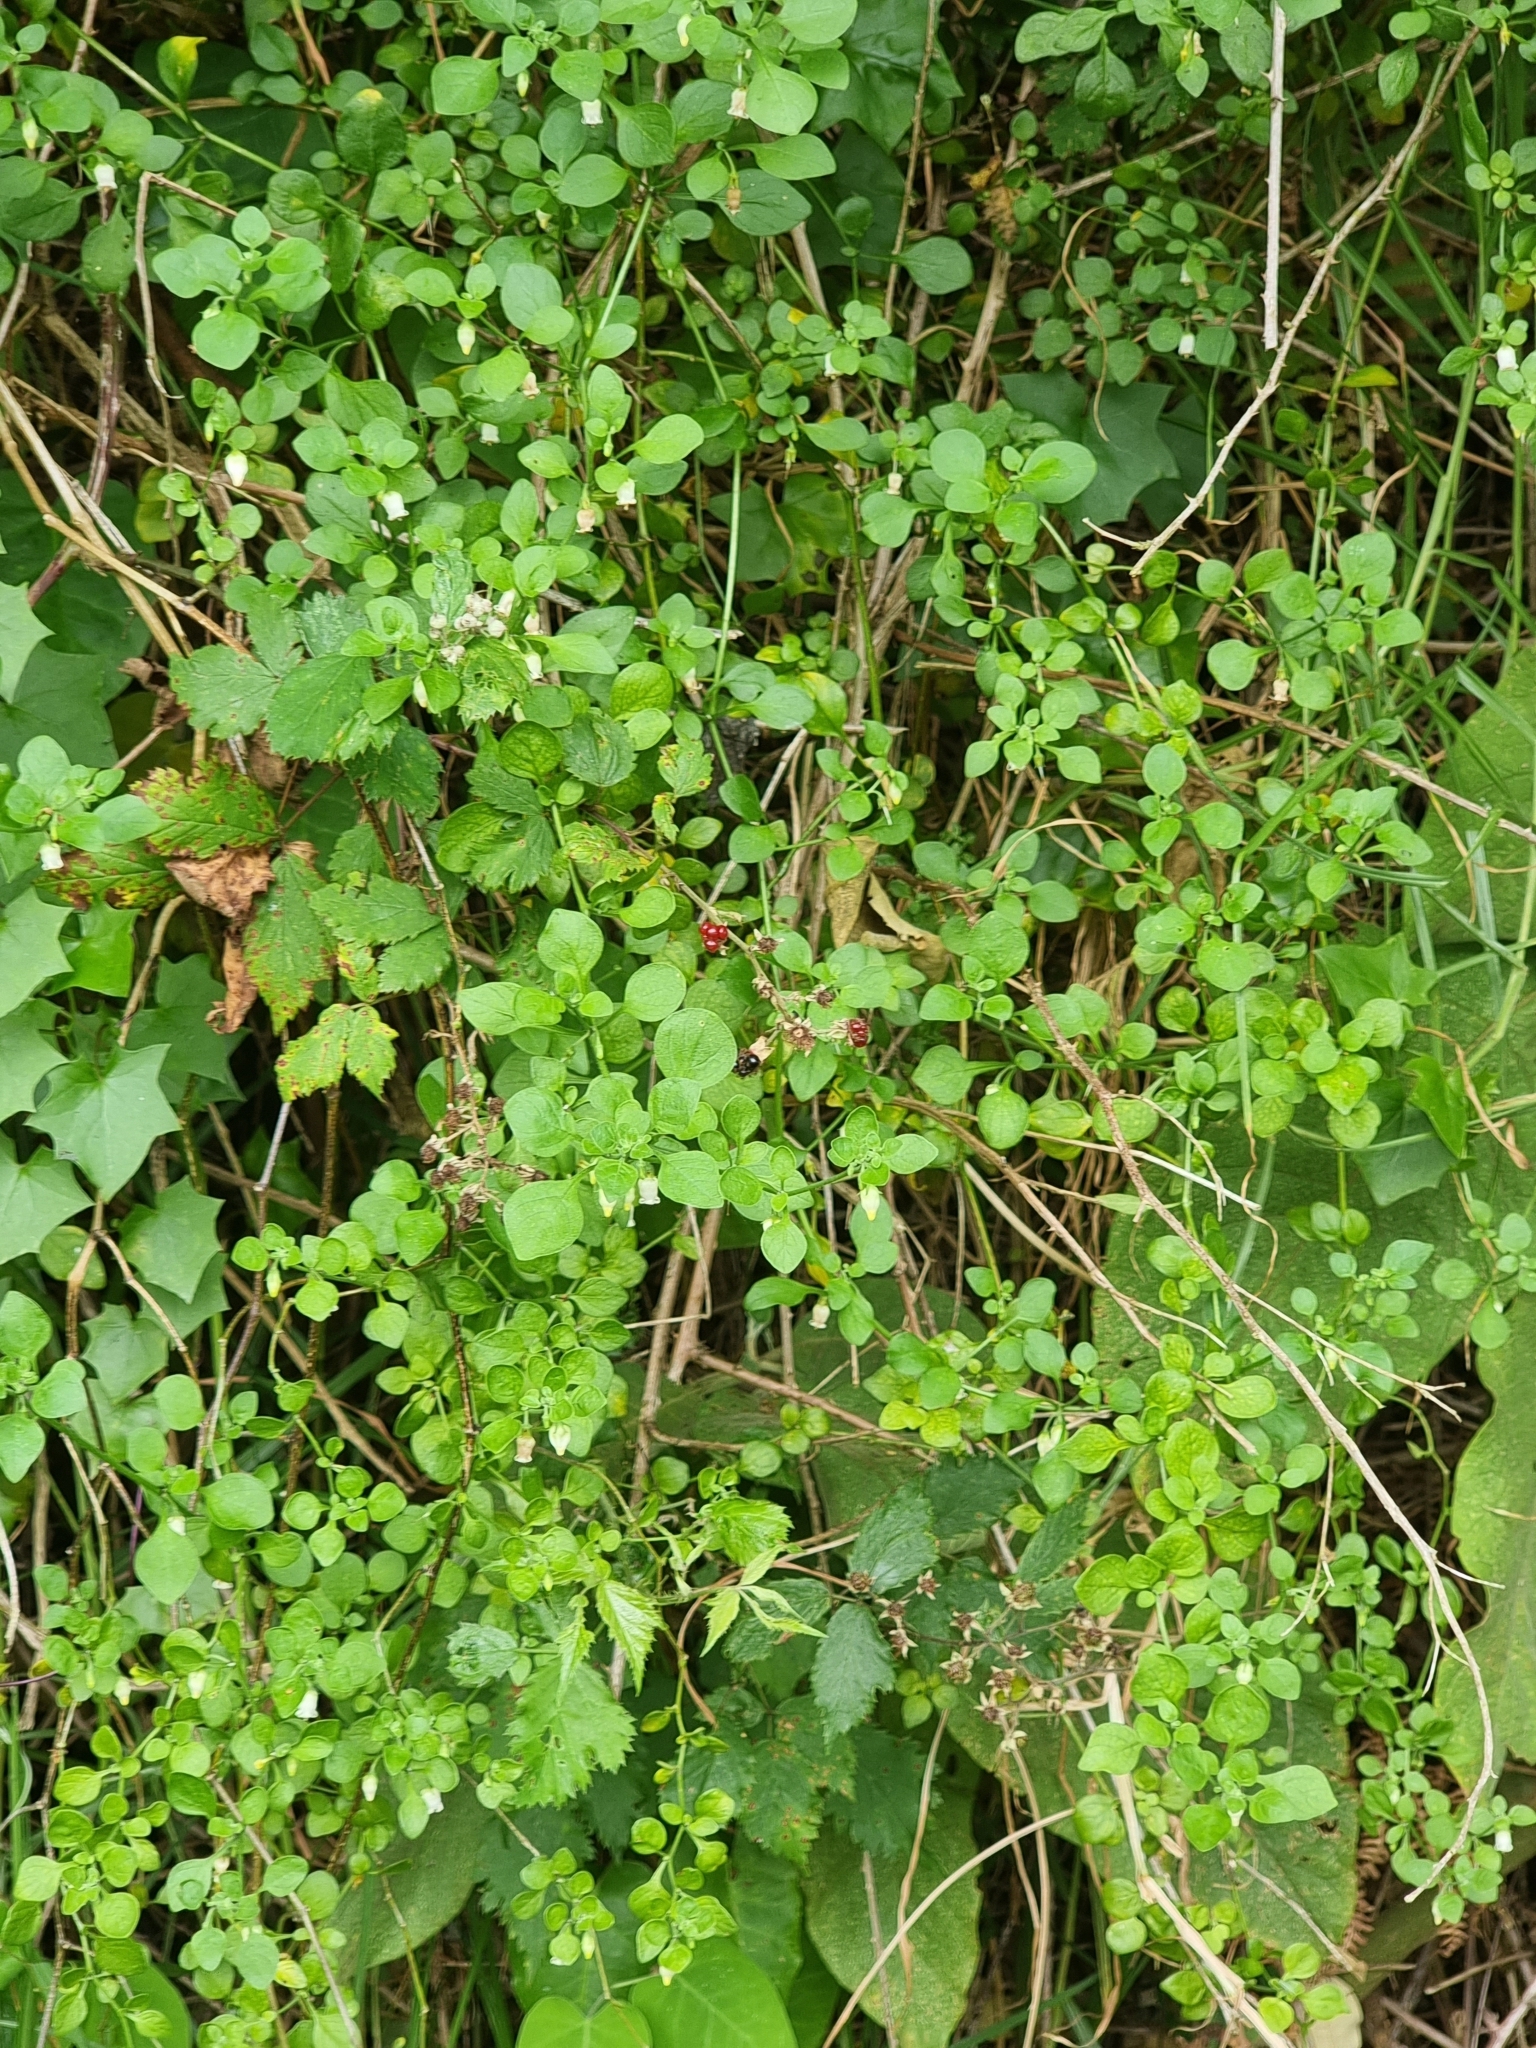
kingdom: Plantae
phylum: Tracheophyta
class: Magnoliopsida
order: Solanales
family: Solanaceae
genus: Salpichroa
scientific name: Salpichroa origanifolia
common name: Lily-of-the-valley-vine
